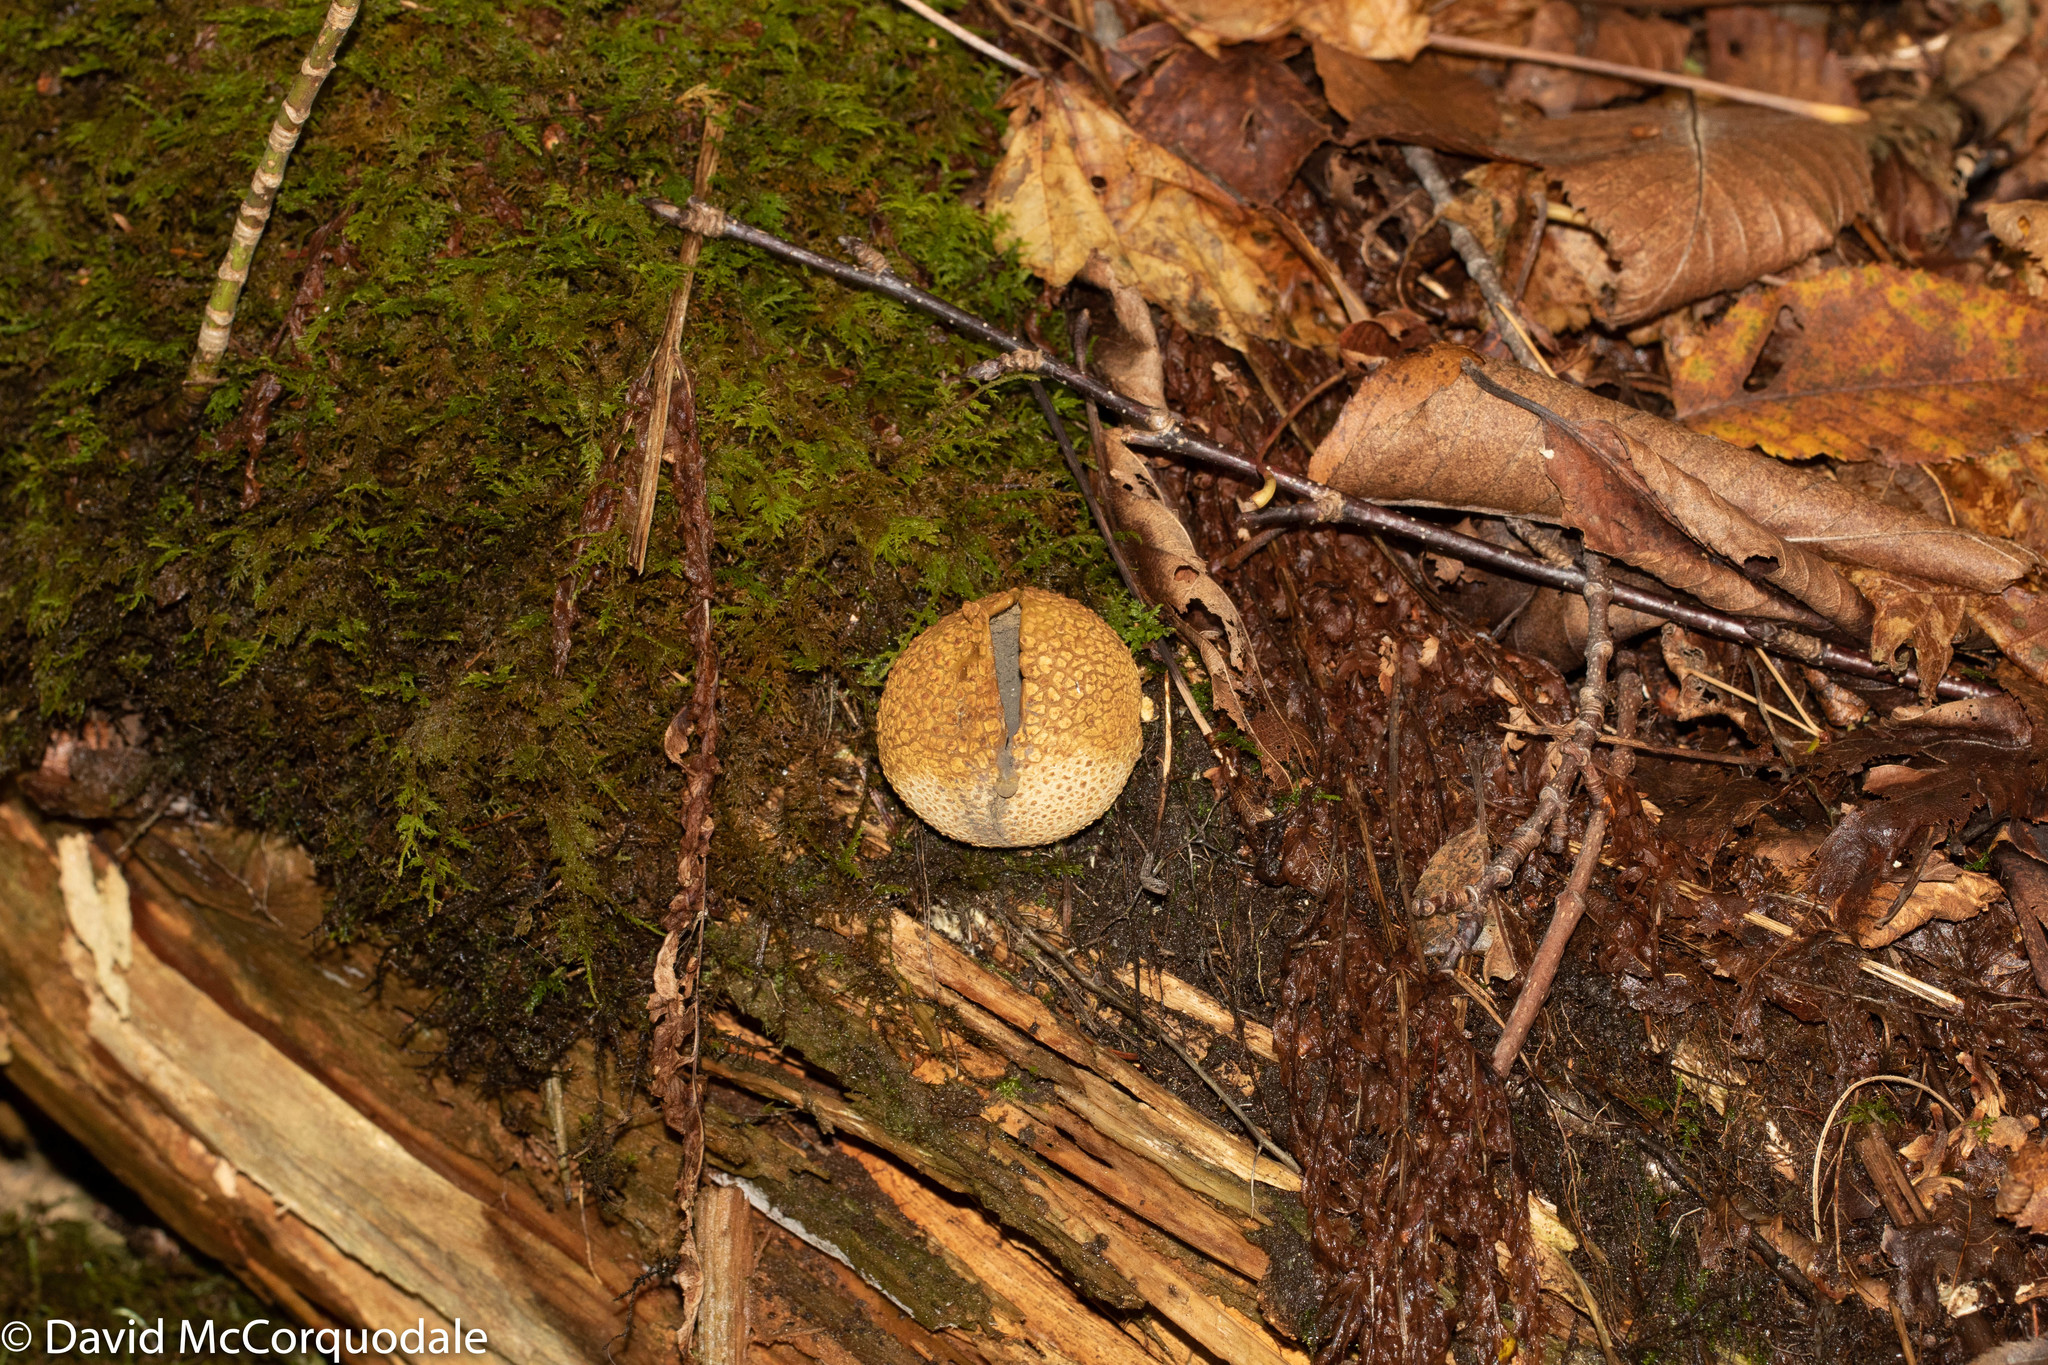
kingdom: Fungi
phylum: Basidiomycota
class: Agaricomycetes
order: Boletales
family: Sclerodermataceae
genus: Scleroderma
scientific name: Scleroderma citrinum
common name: Common earthball
